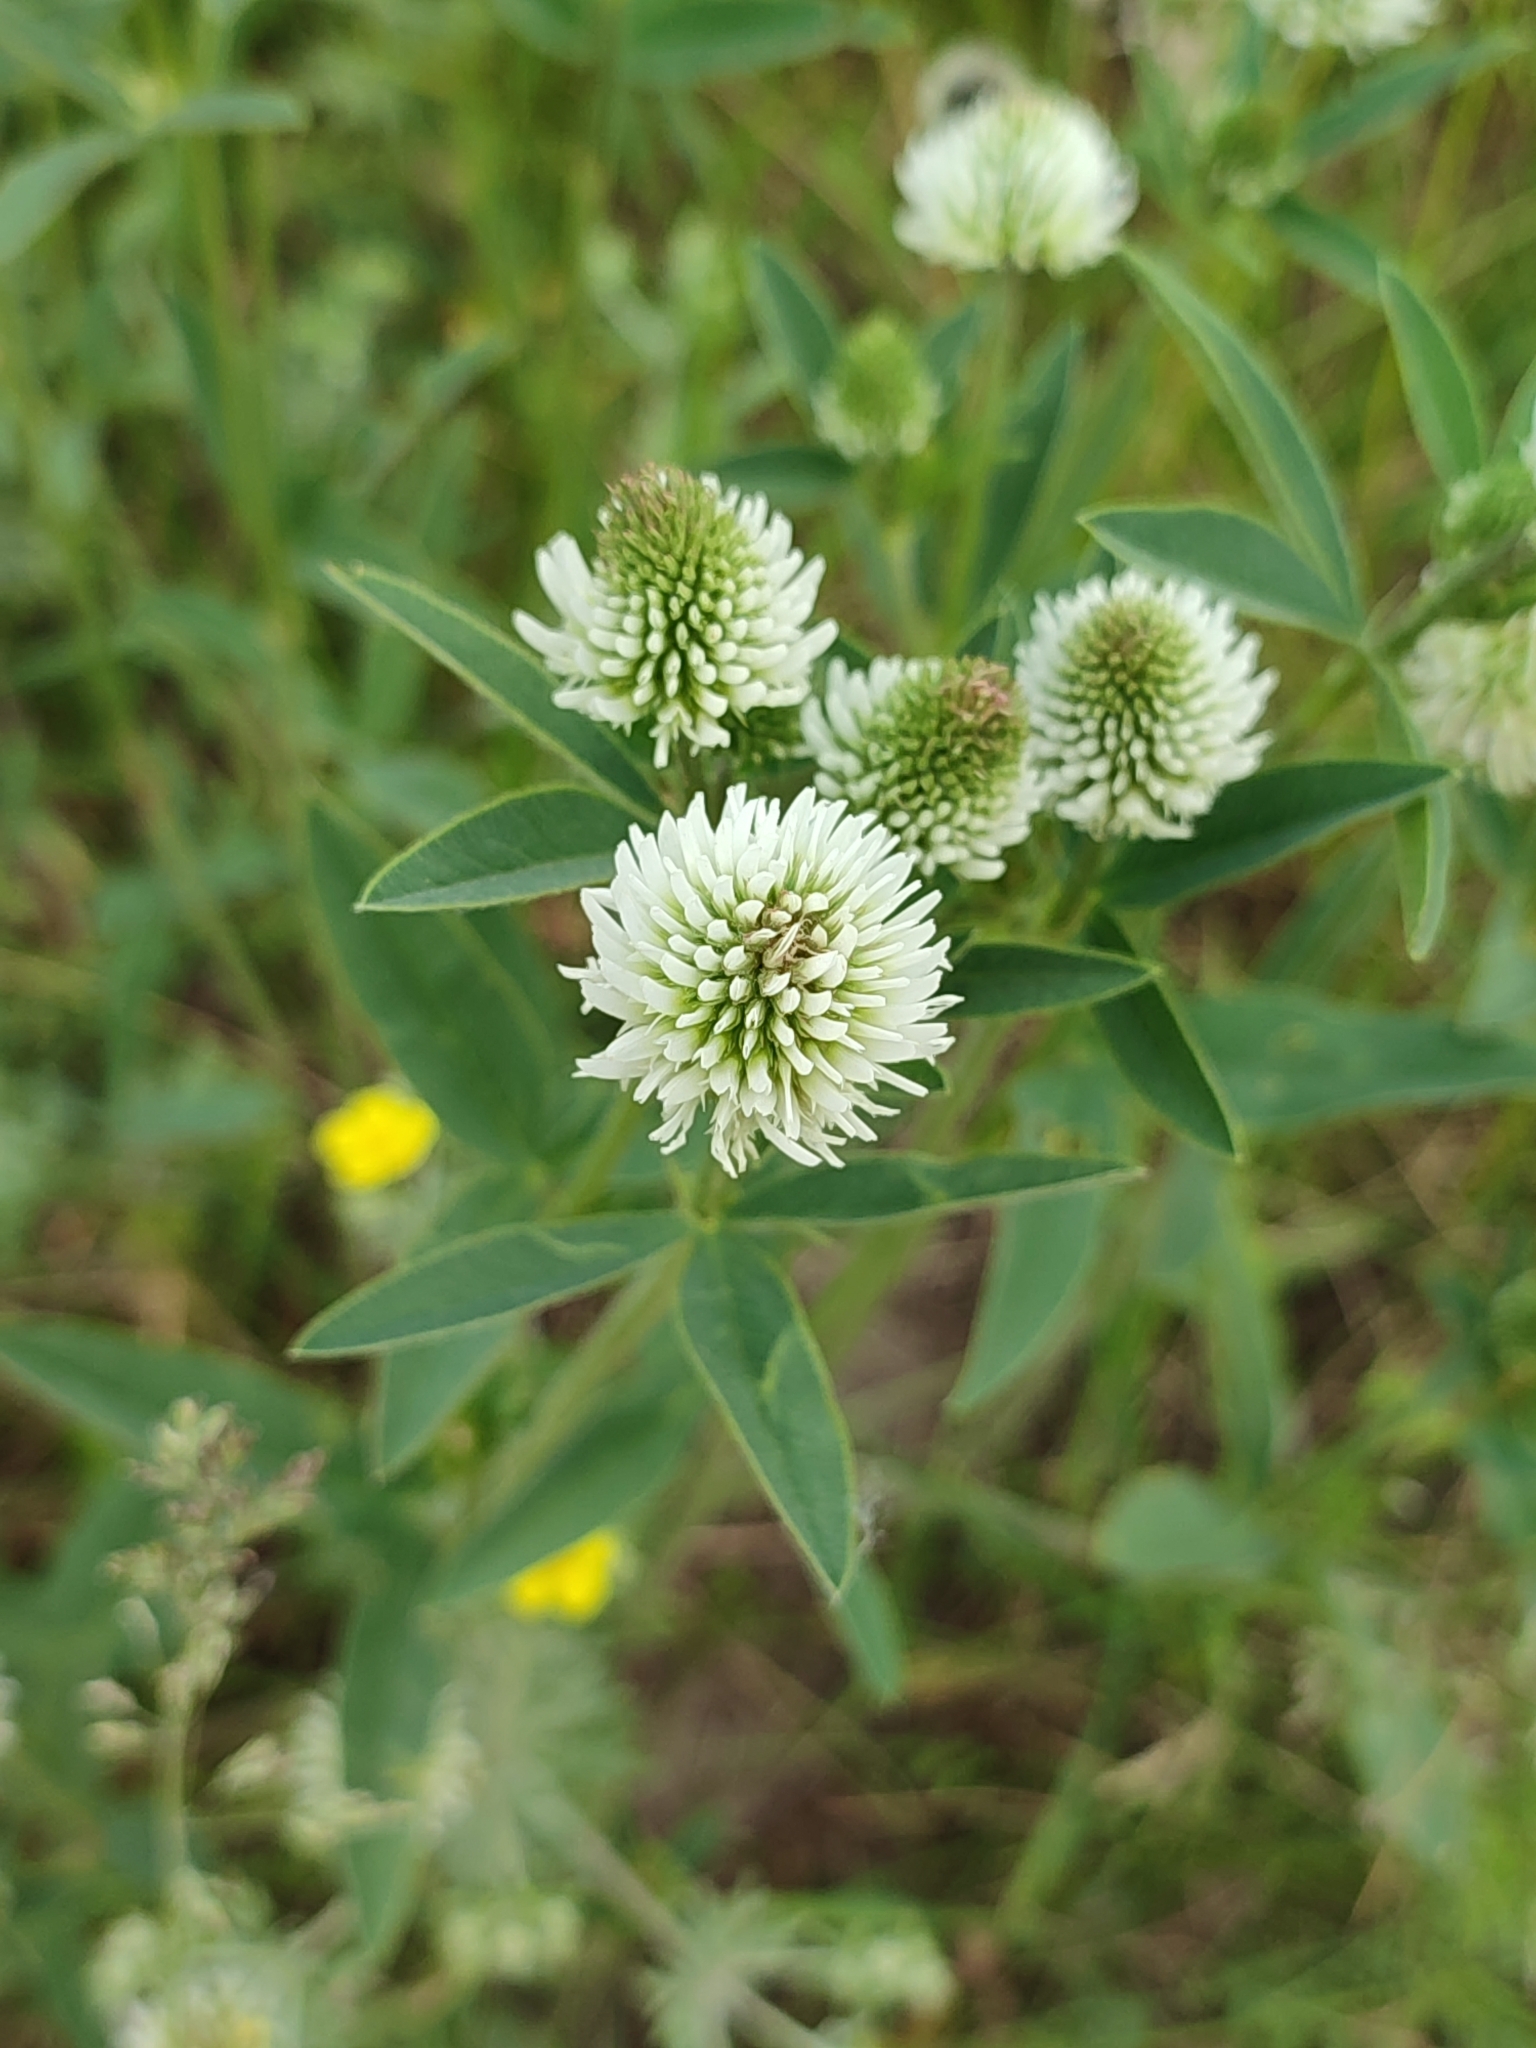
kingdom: Plantae
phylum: Tracheophyta
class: Magnoliopsida
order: Fabales
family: Fabaceae
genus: Trifolium
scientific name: Trifolium montanum
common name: Mountain clover
